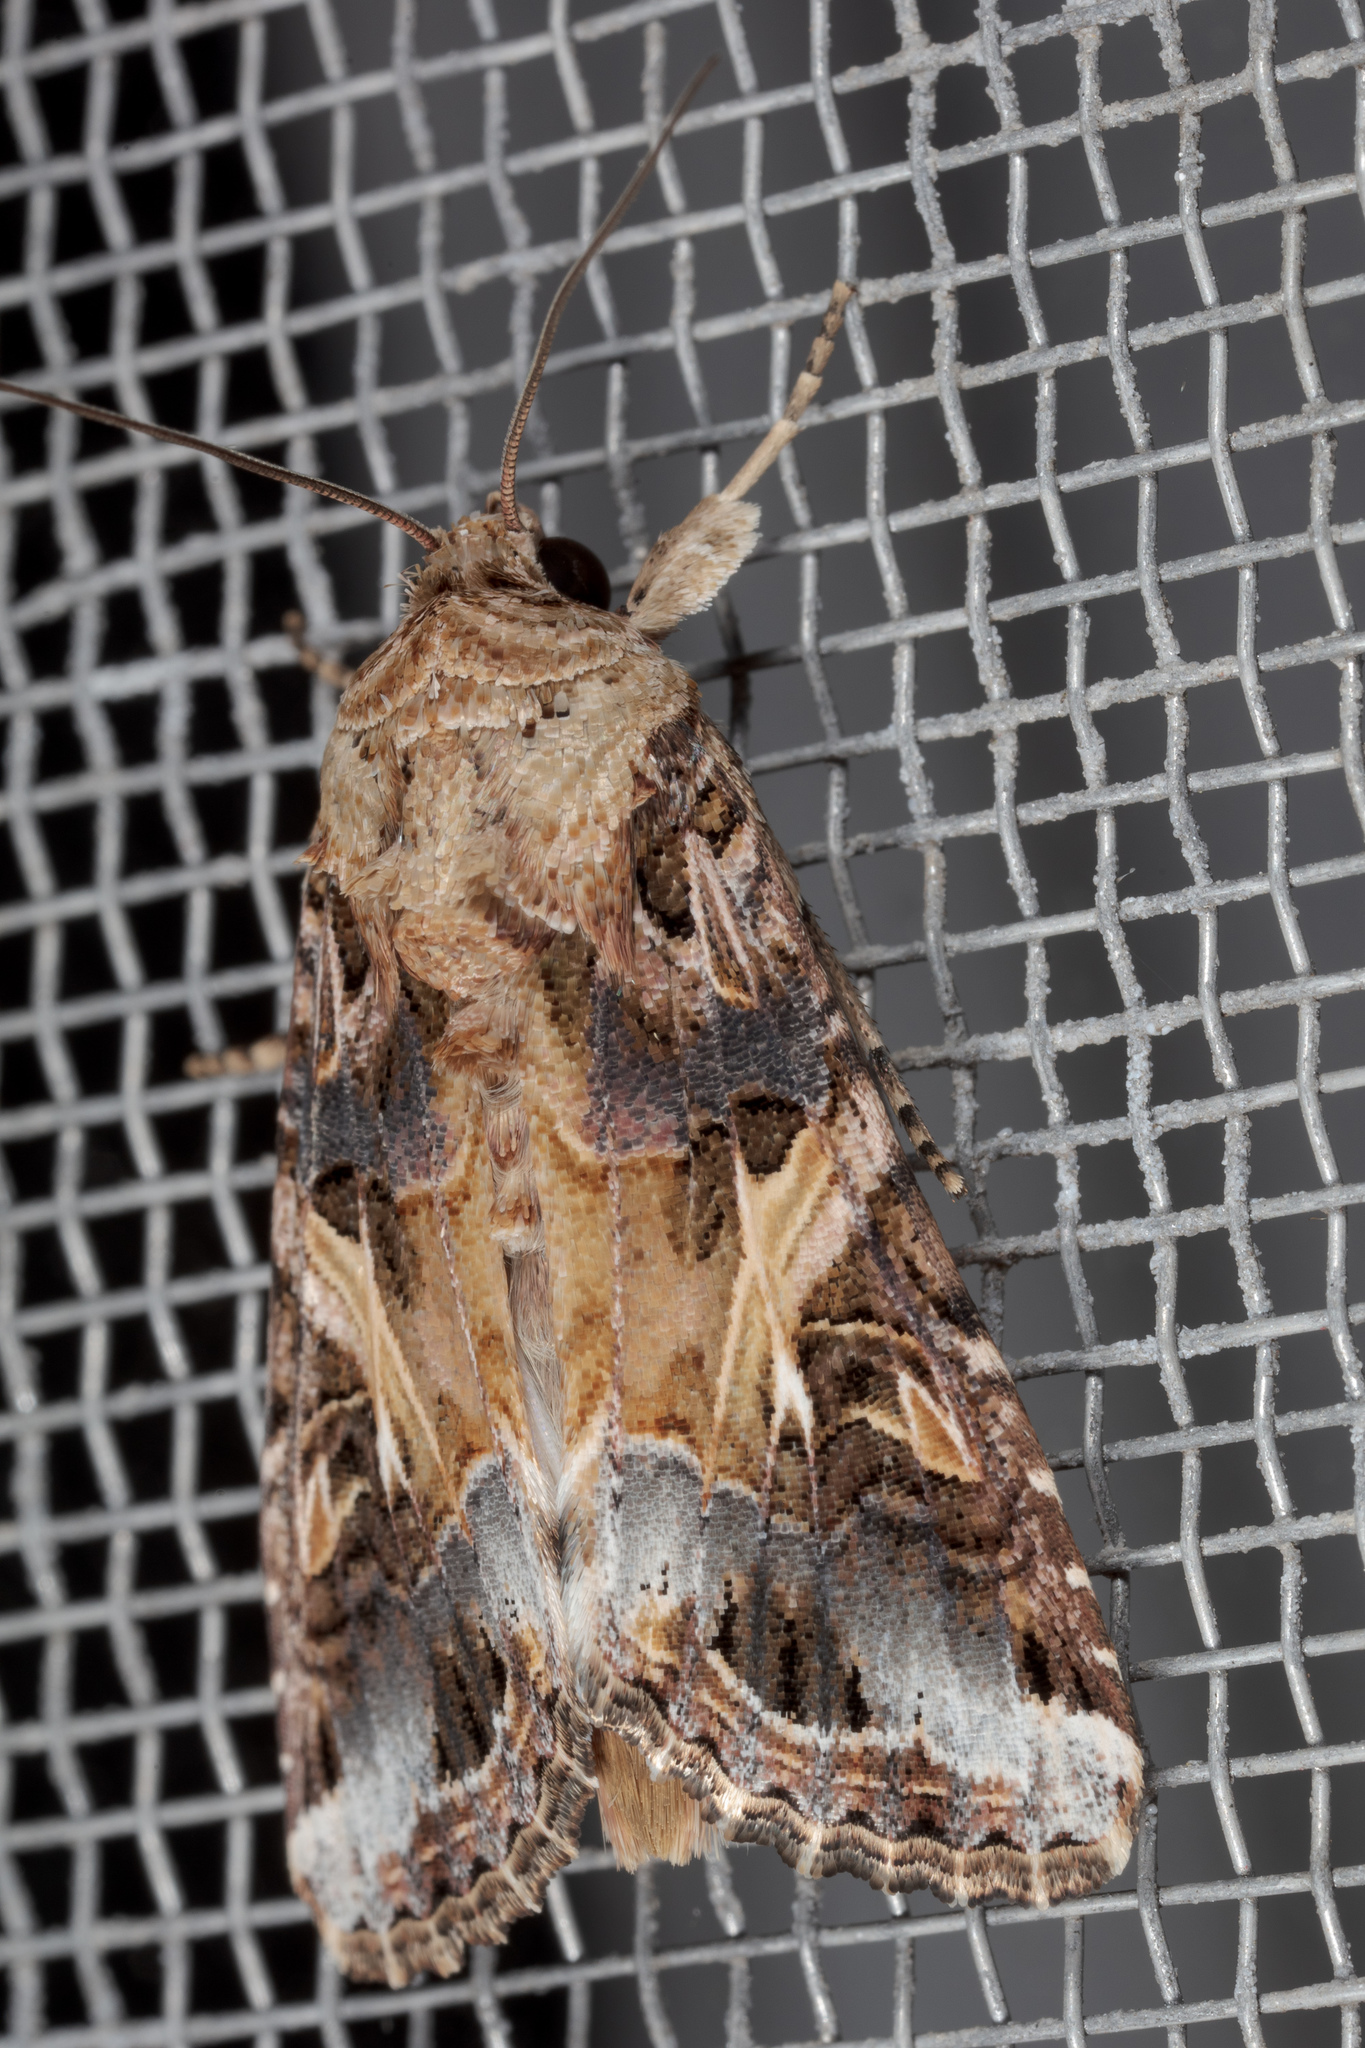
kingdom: Animalia
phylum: Arthropoda
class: Insecta
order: Lepidoptera
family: Noctuidae
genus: Spodoptera
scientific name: Spodoptera ornithogalli
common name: Yellow-striped armyworm
